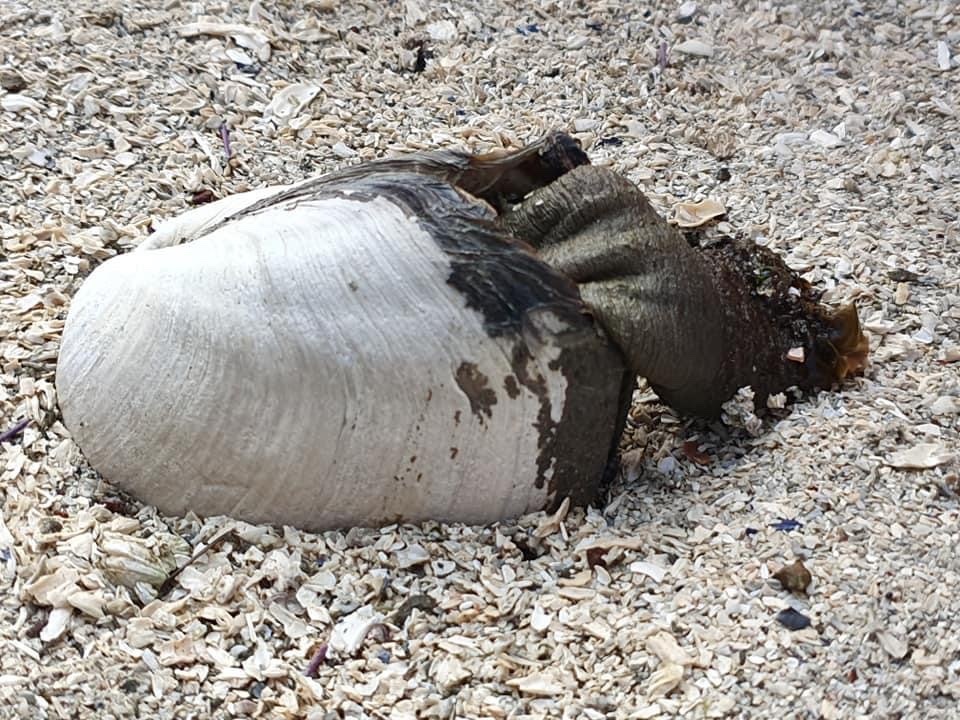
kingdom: Animalia
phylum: Mollusca
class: Bivalvia
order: Venerida
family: Mactridae
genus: Tresus
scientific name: Tresus nuttallii
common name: Pacific gaper clam
